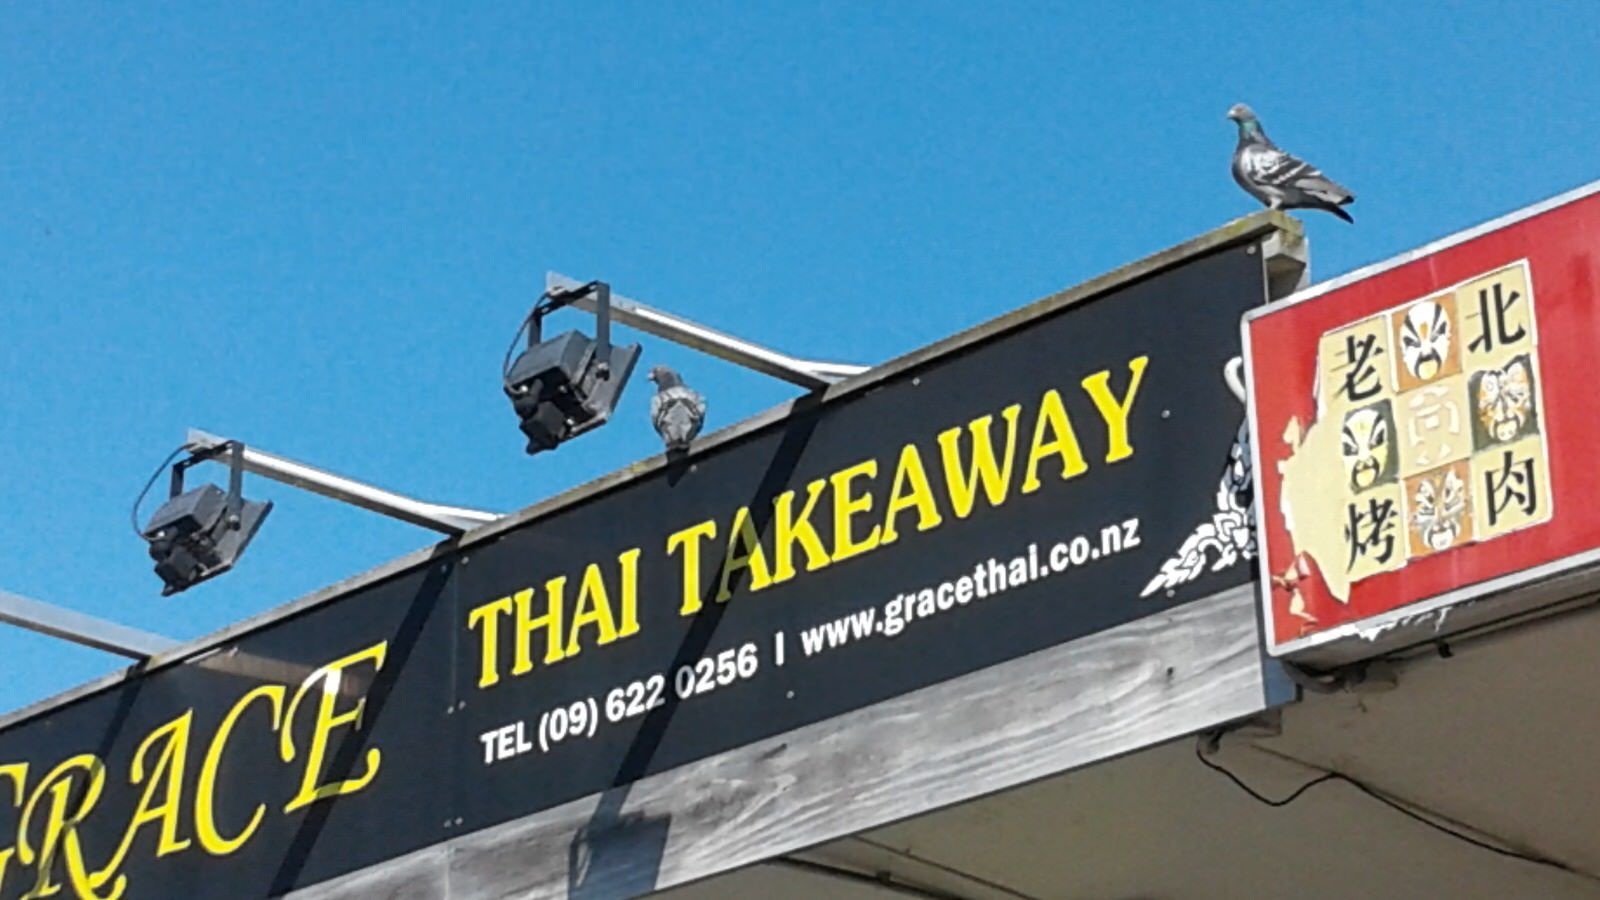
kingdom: Animalia
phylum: Chordata
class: Aves
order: Columbiformes
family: Columbidae
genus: Columba
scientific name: Columba livia
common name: Rock pigeon
